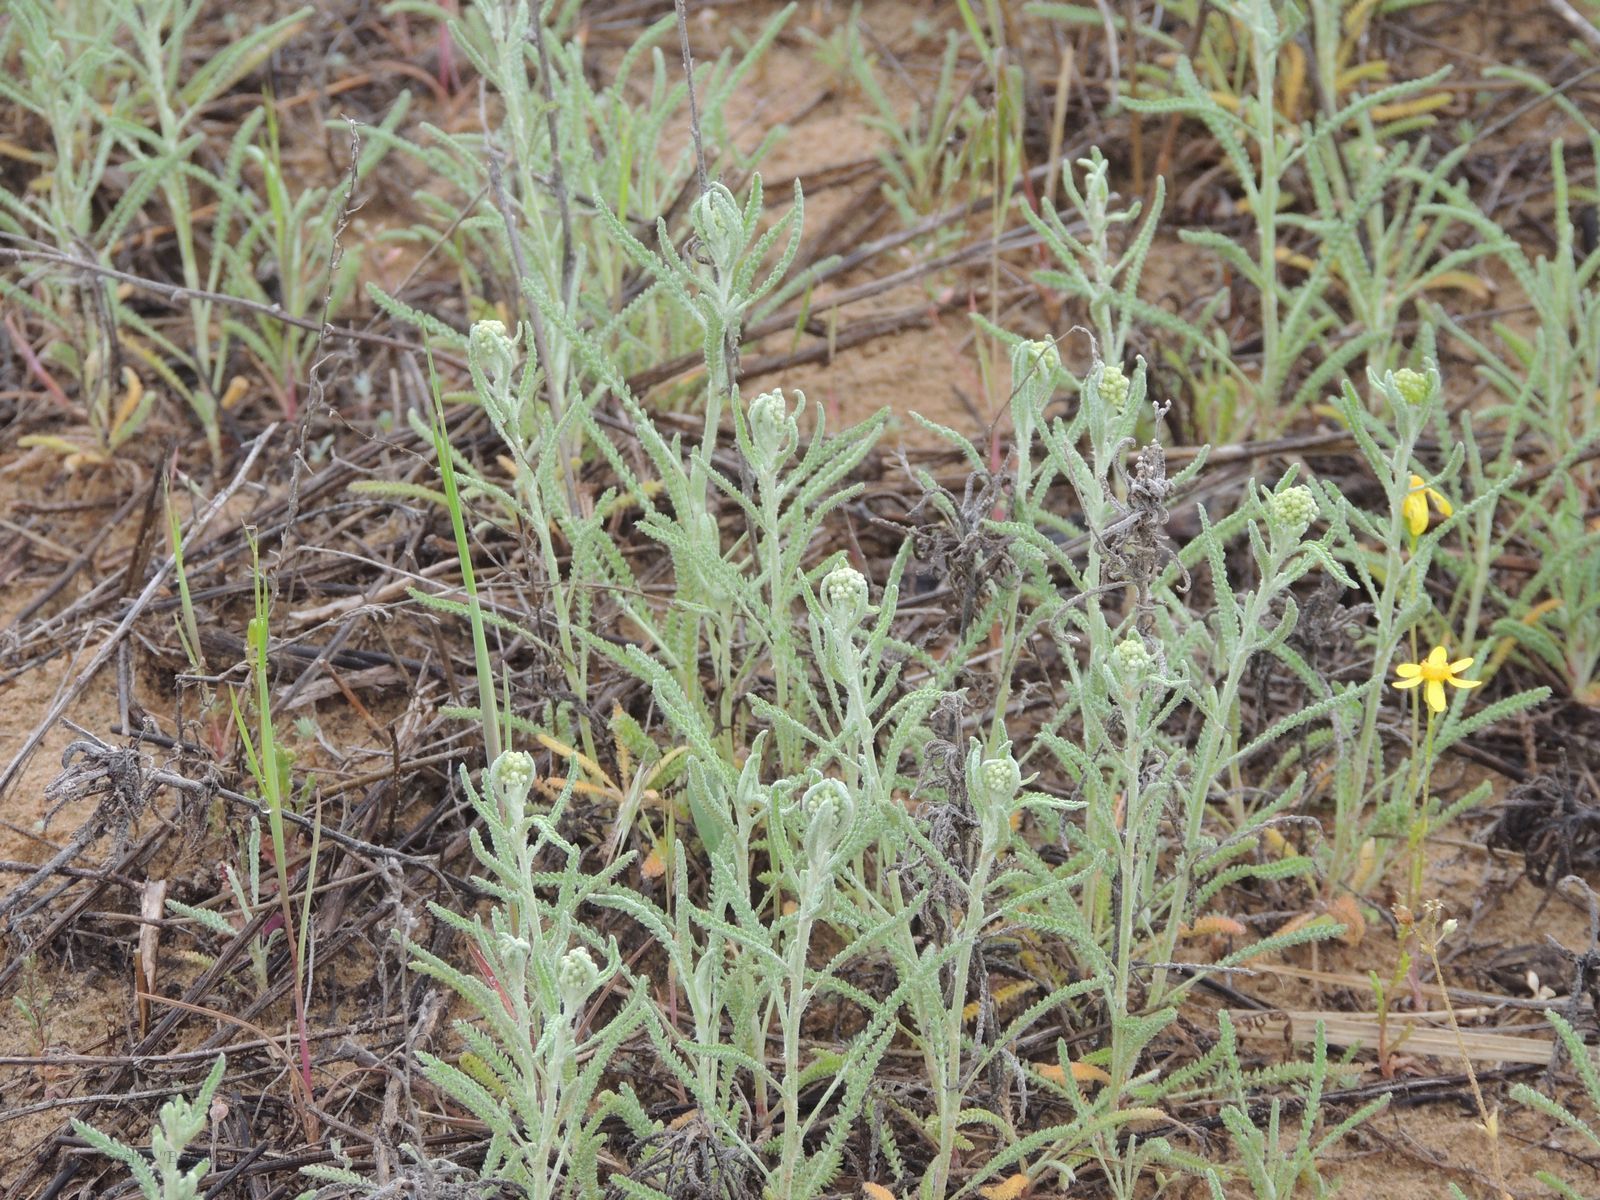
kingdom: Plantae
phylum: Tracheophyta
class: Magnoliopsida
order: Asterales
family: Asteraceae
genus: Achillea
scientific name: Achillea micrantha
